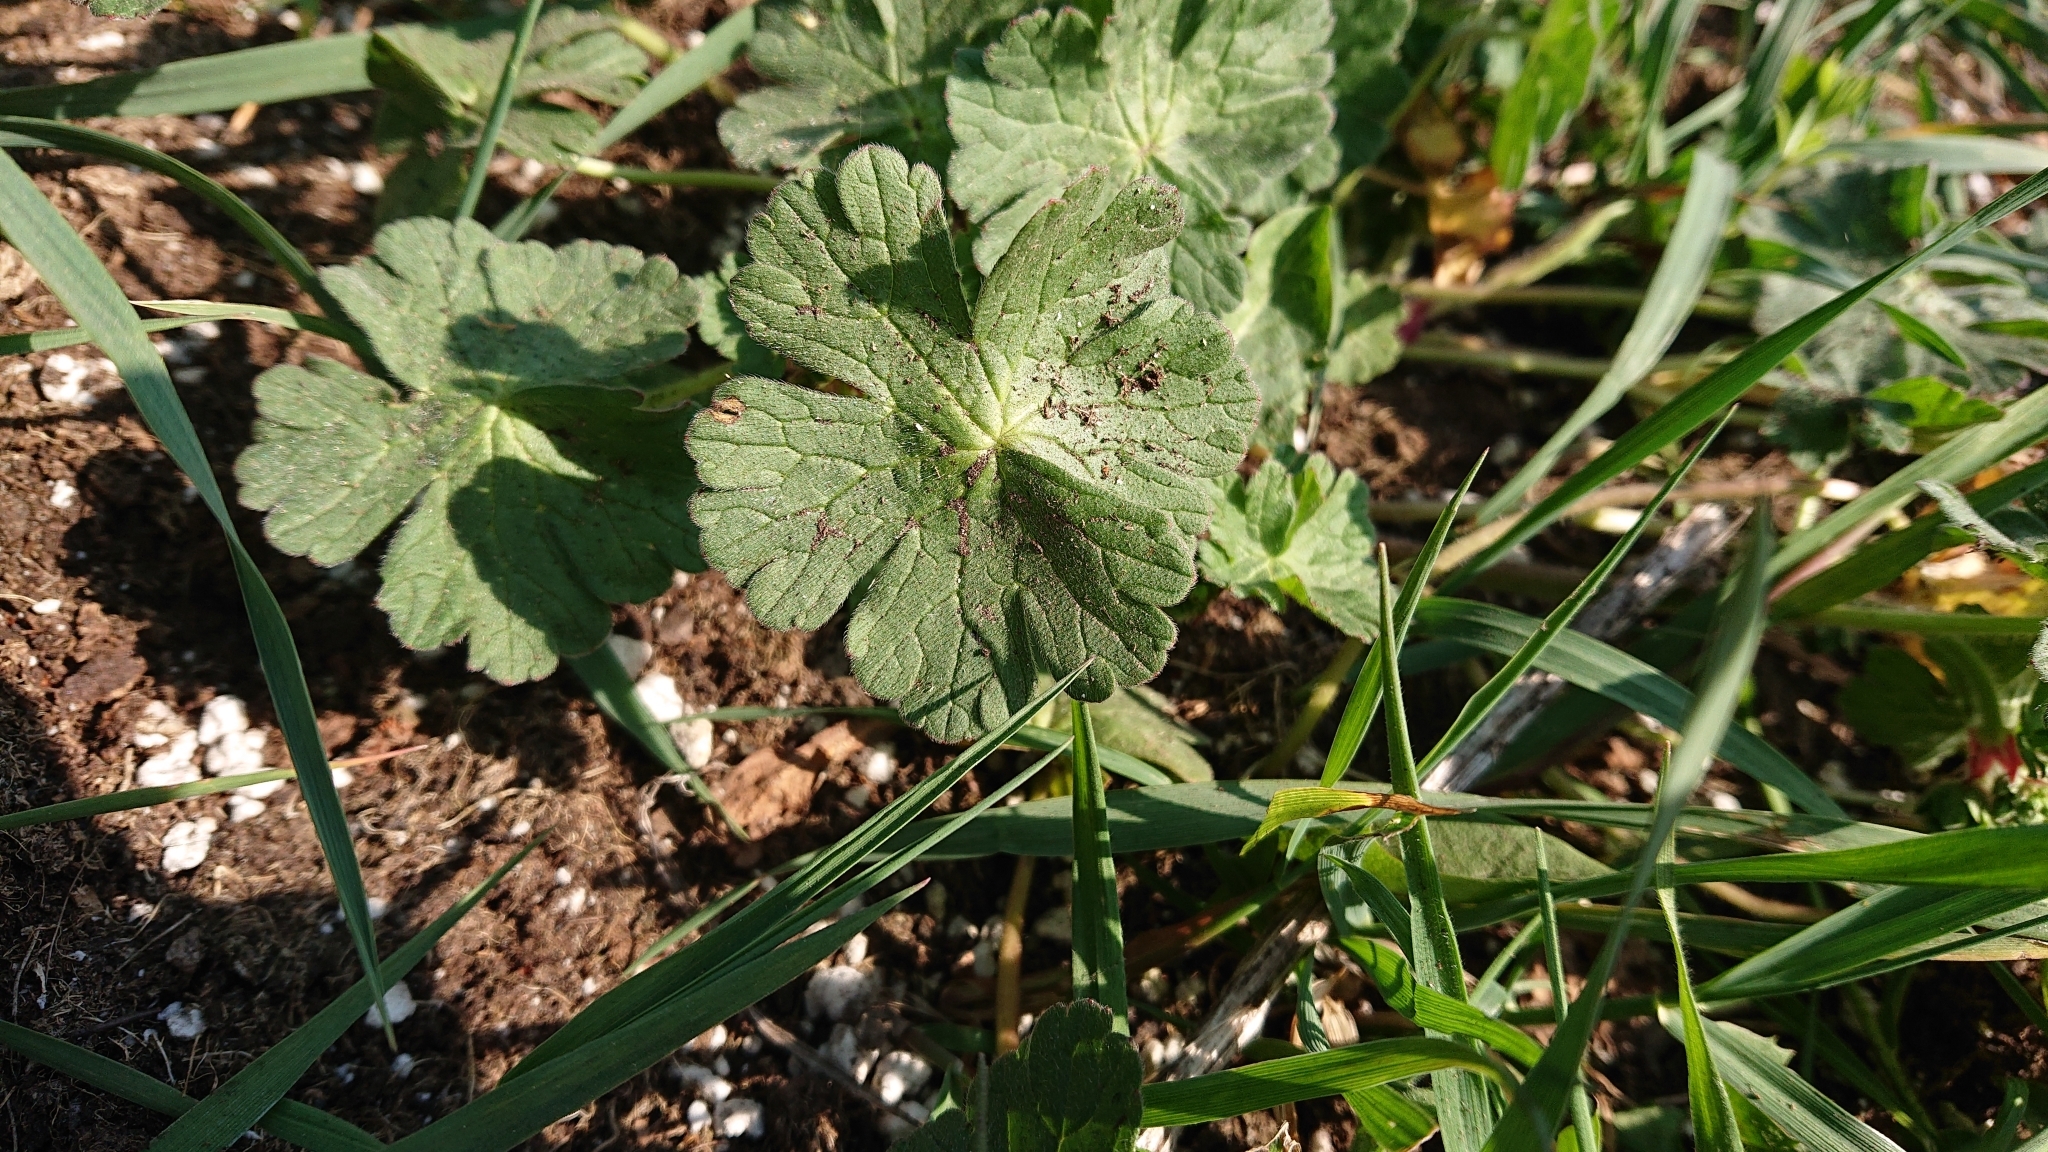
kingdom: Plantae
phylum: Tracheophyta
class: Magnoliopsida
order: Geraniales
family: Geraniaceae
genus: Geranium
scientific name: Geranium pyrenaicum
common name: Hedgerow crane's-bill
